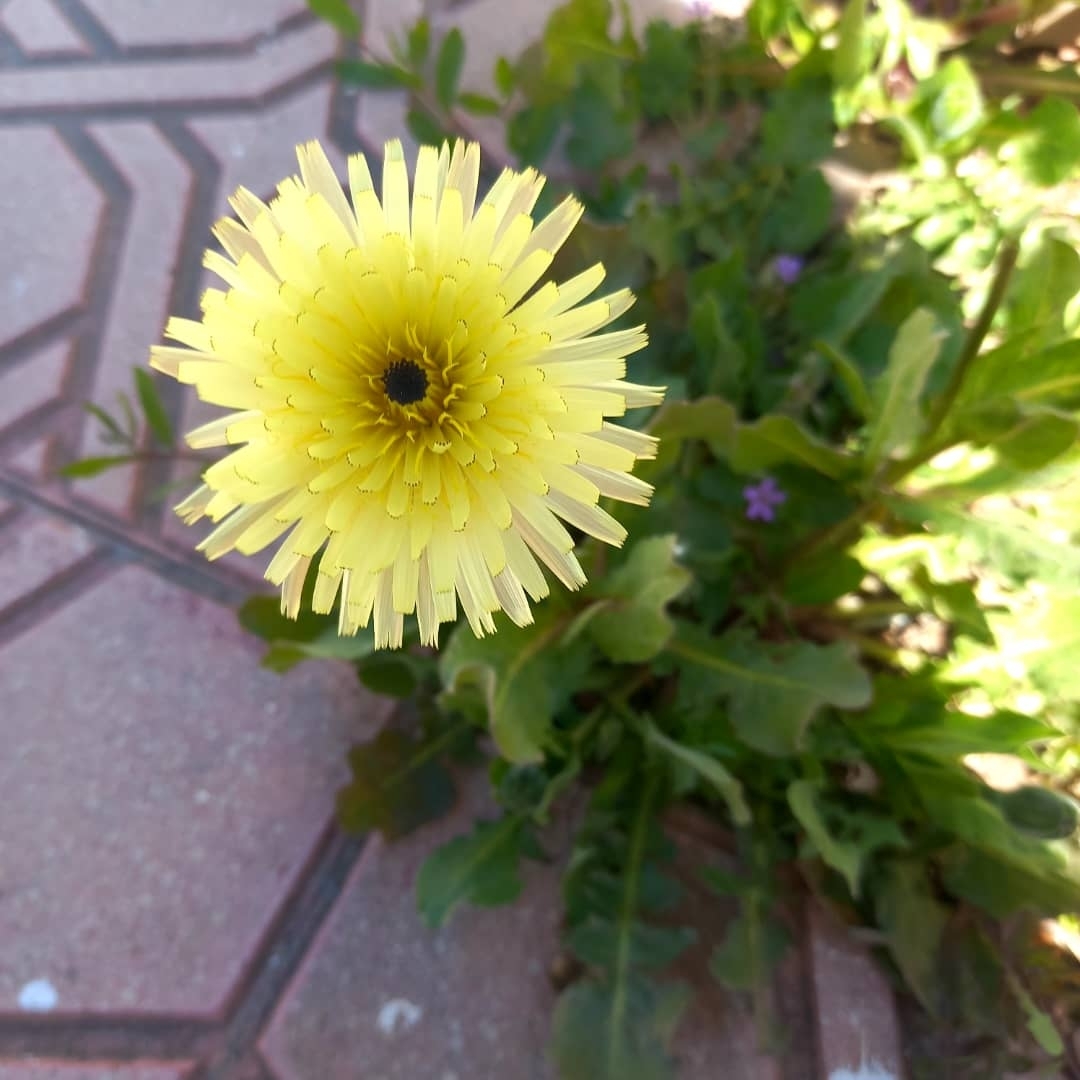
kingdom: Plantae
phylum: Tracheophyta
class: Magnoliopsida
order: Asterales
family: Asteraceae
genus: Urospermum
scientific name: Urospermum dalechampii
